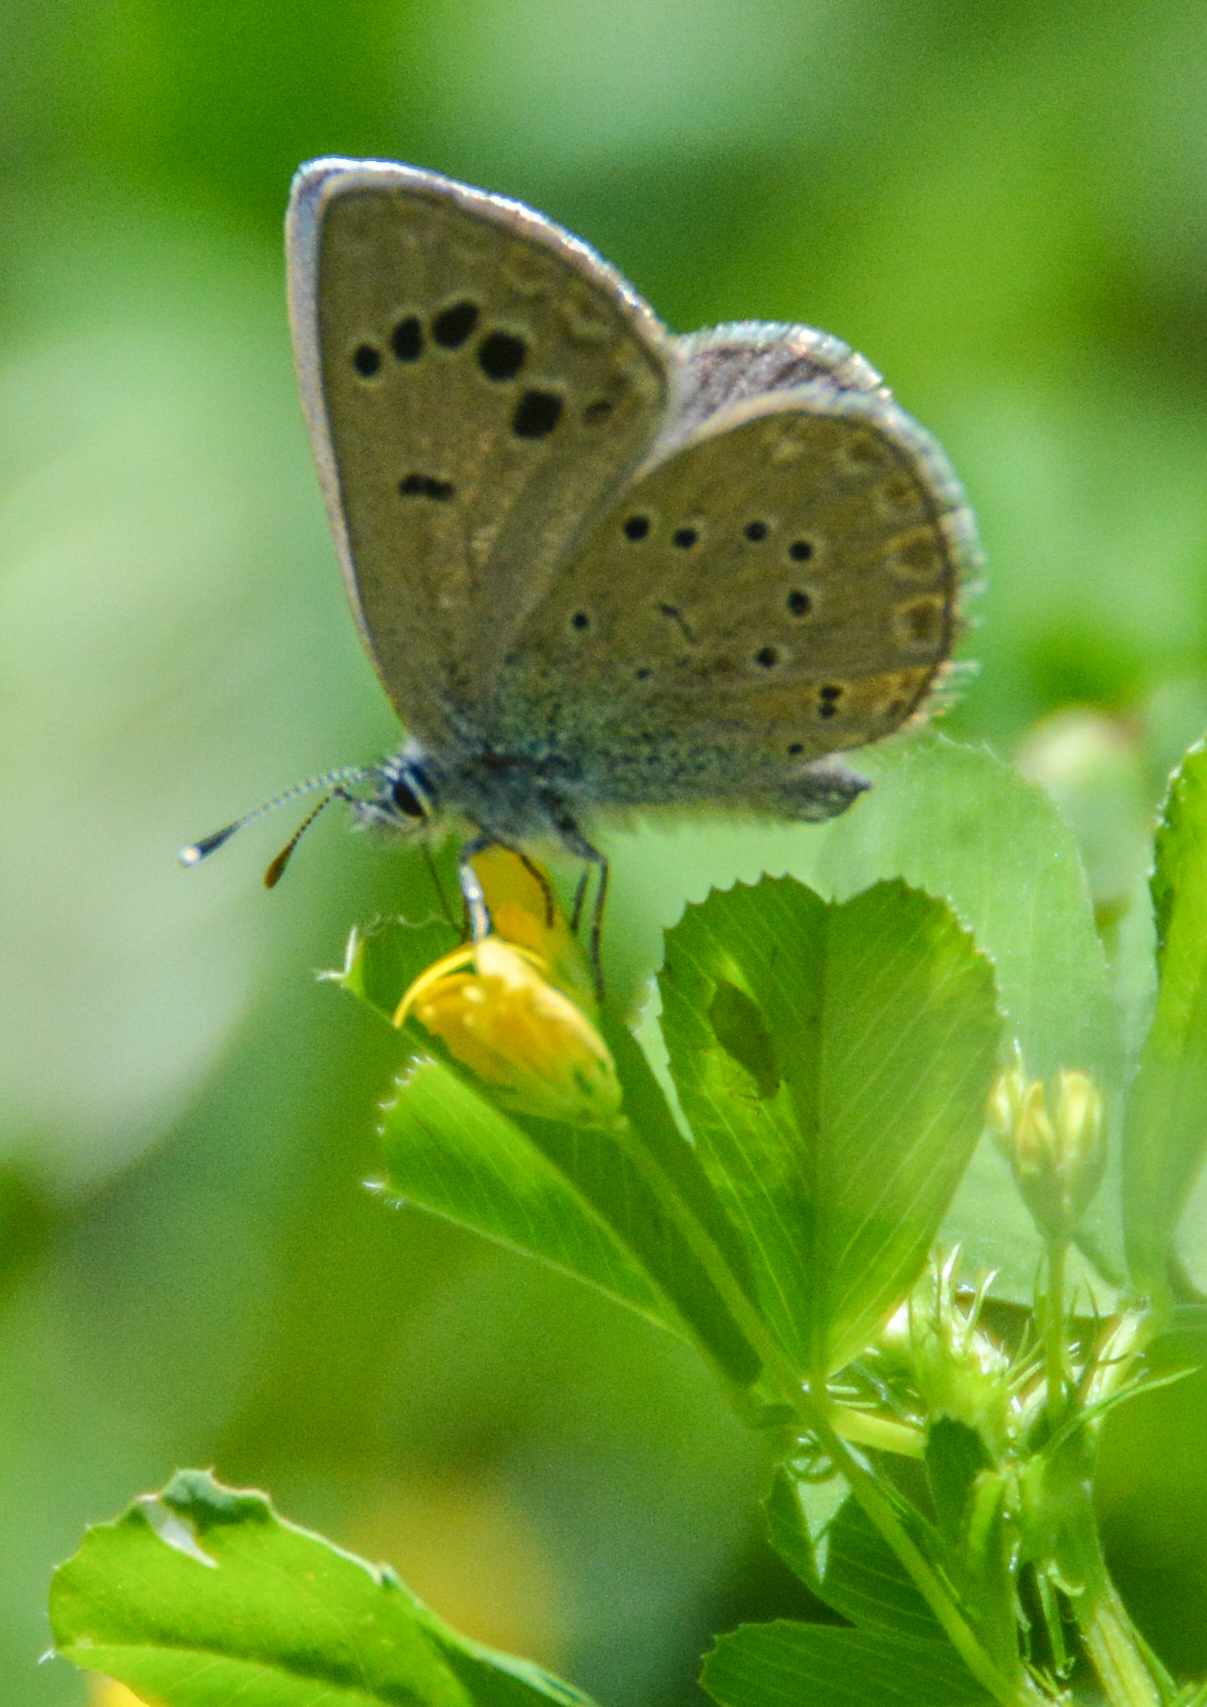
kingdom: Animalia
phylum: Arthropoda
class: Insecta
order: Lepidoptera
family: Lycaenidae
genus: Glaucopsyche
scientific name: Glaucopsyche melanops
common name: Black-eyed blue
